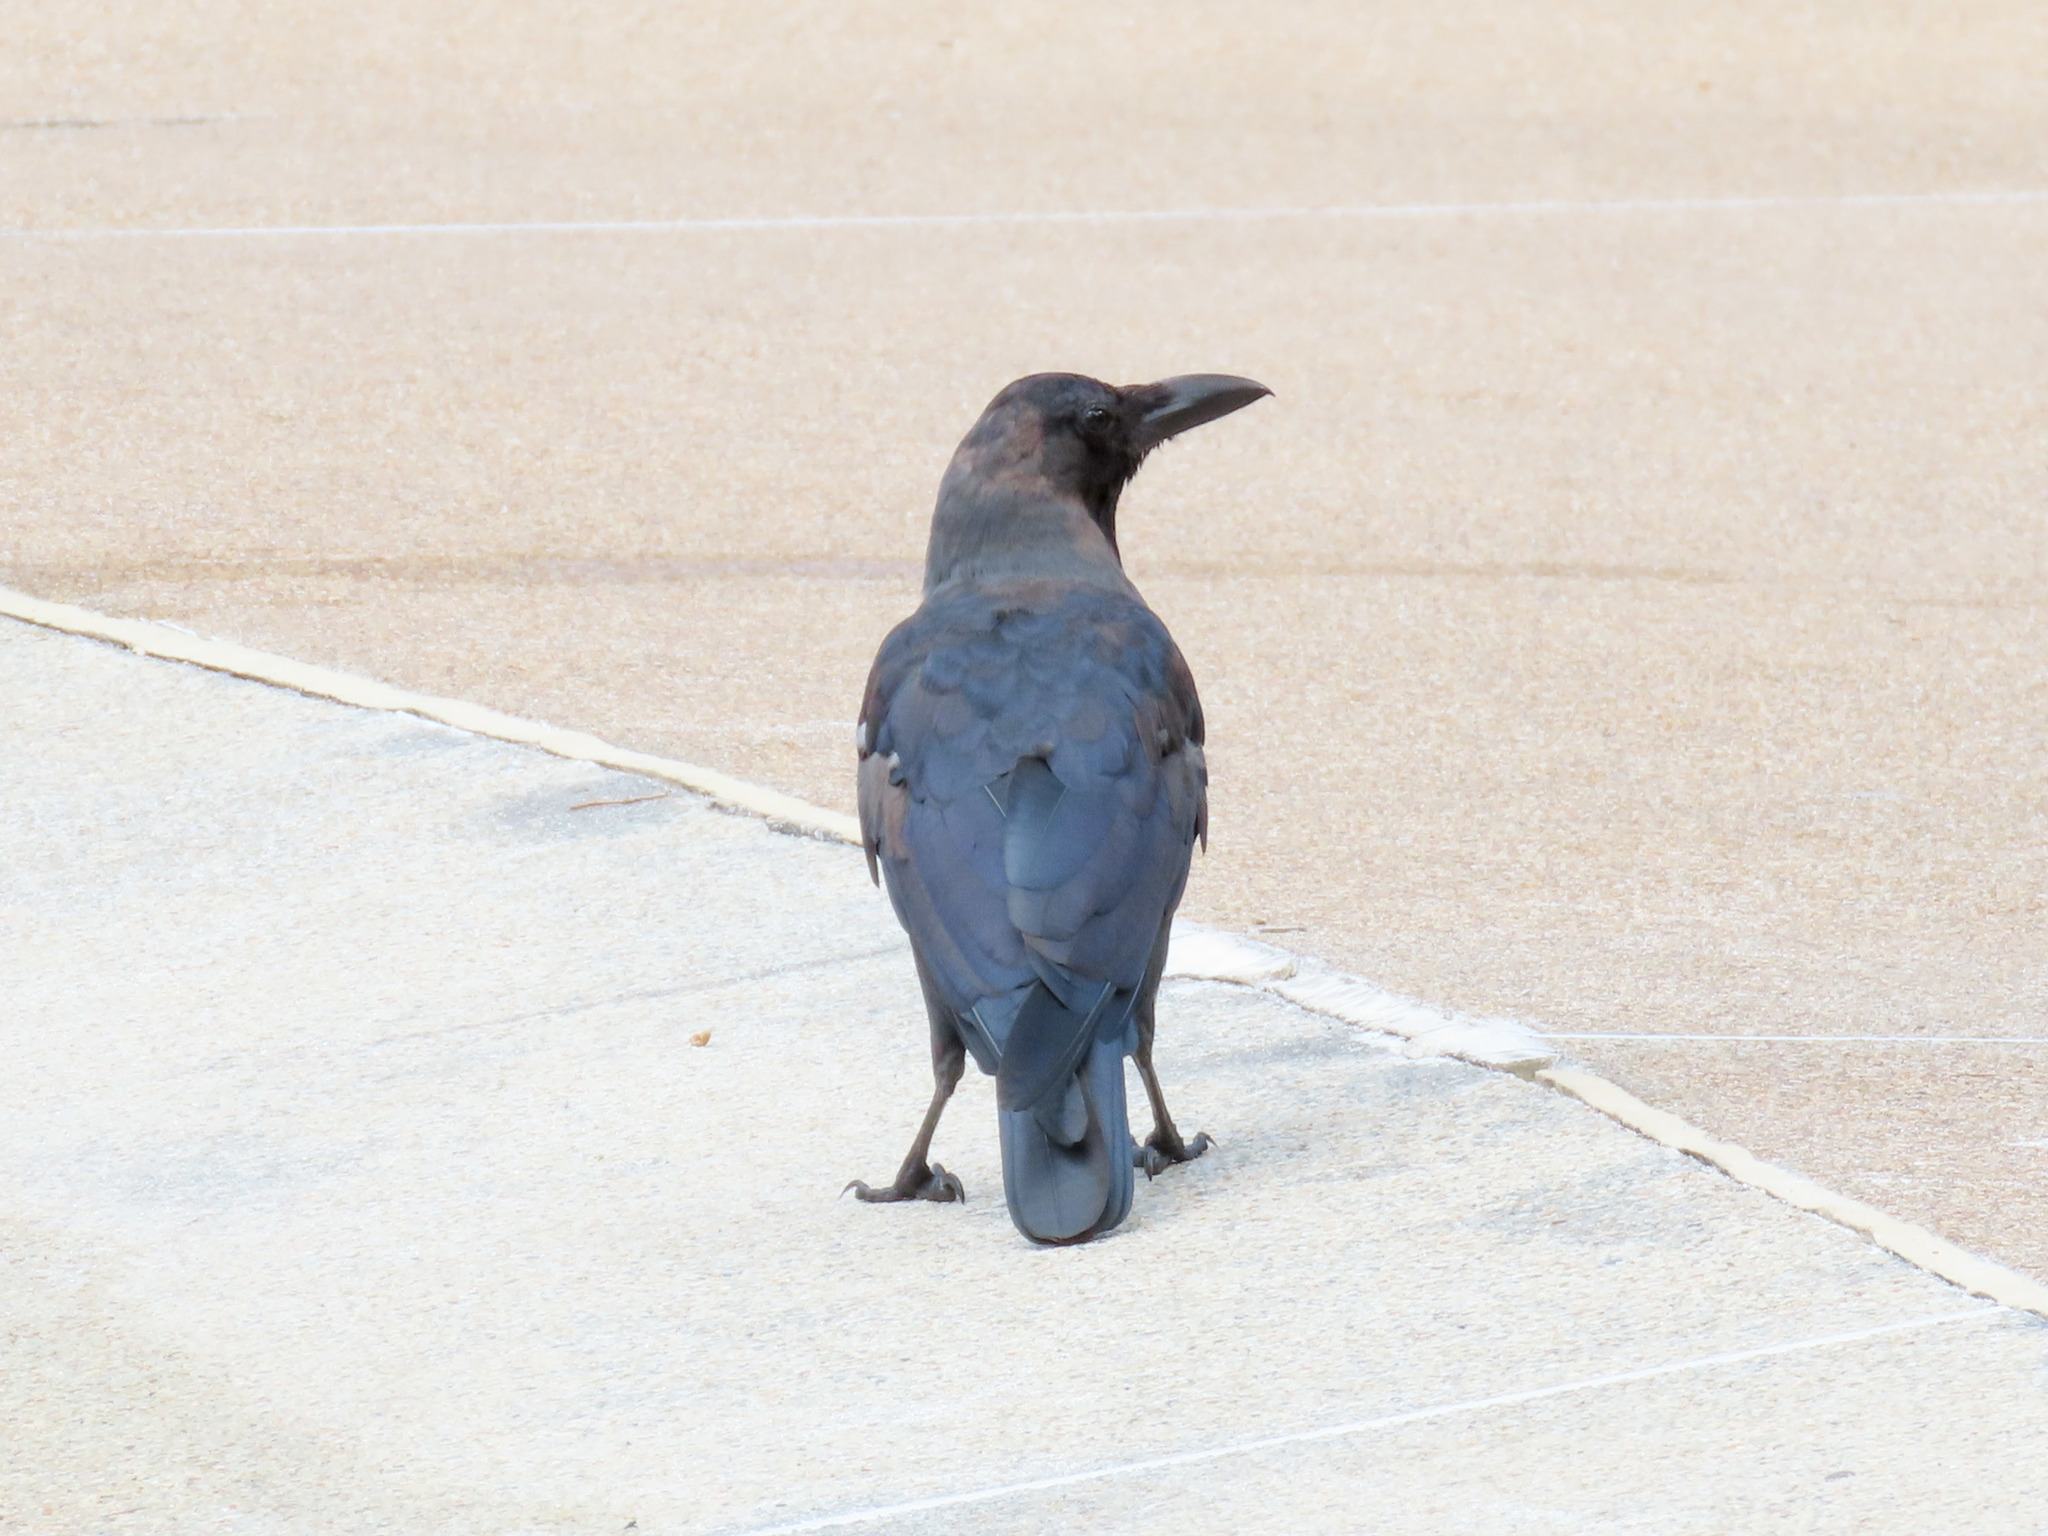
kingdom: Animalia
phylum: Chordata
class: Aves
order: Passeriformes
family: Corvidae
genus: Corvus
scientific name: Corvus splendens
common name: House crow
